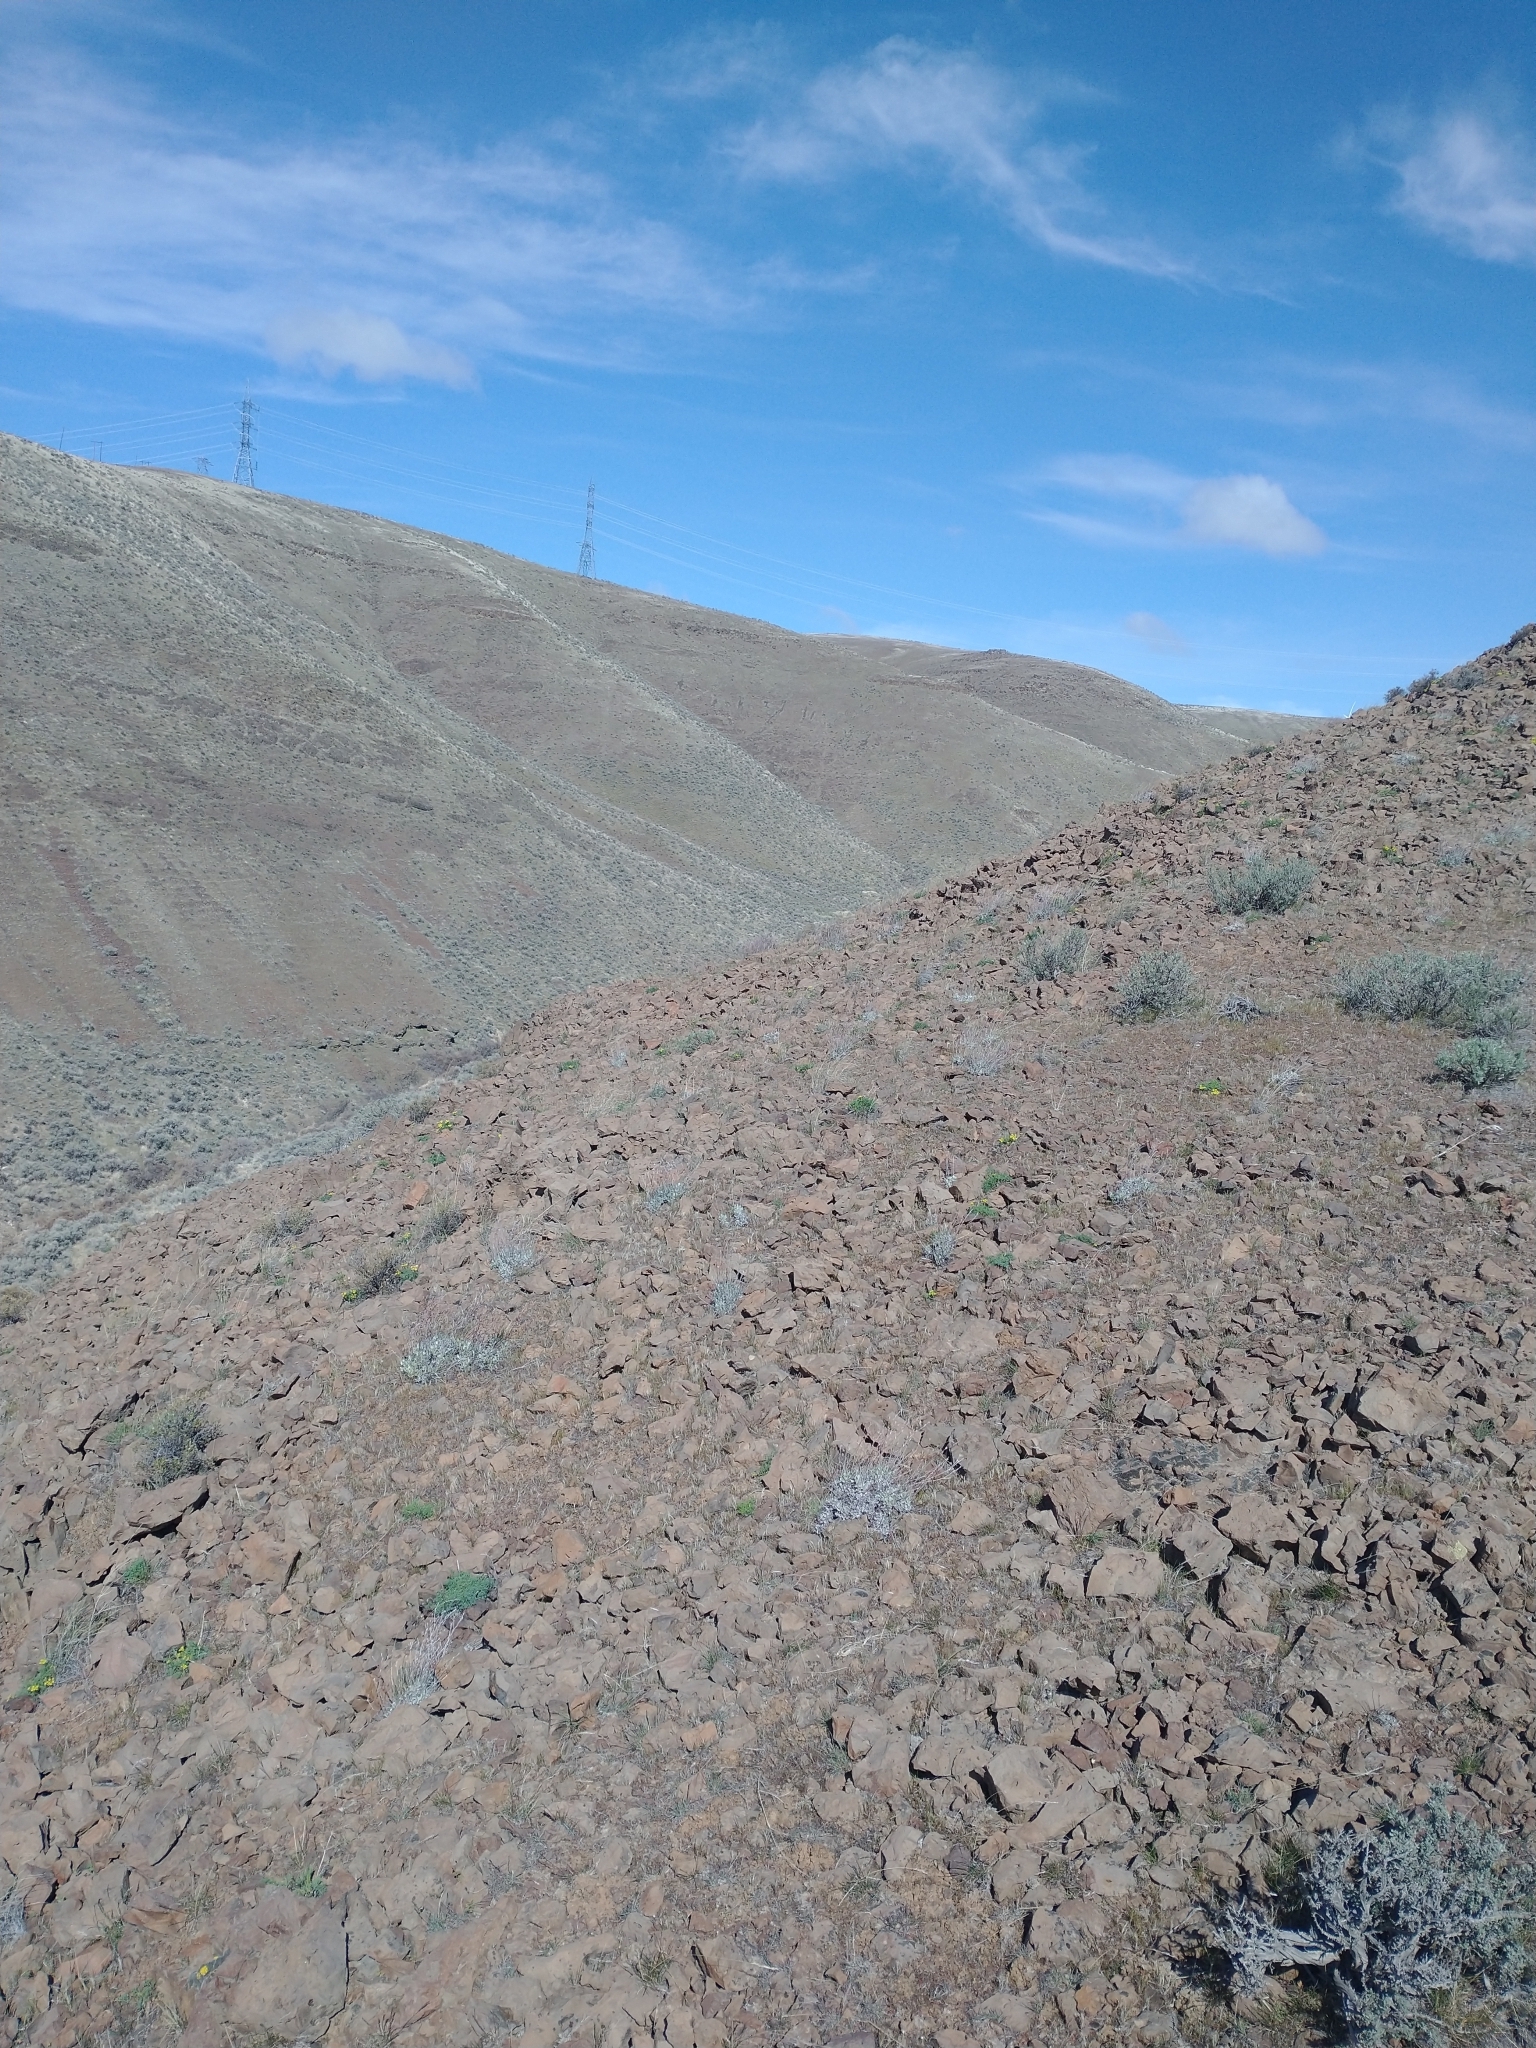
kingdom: Plantae
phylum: Tracheophyta
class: Magnoliopsida
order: Apiales
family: Apiaceae
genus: Lomatium
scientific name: Lomatium papilioniferum
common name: Butterfly lomatium
